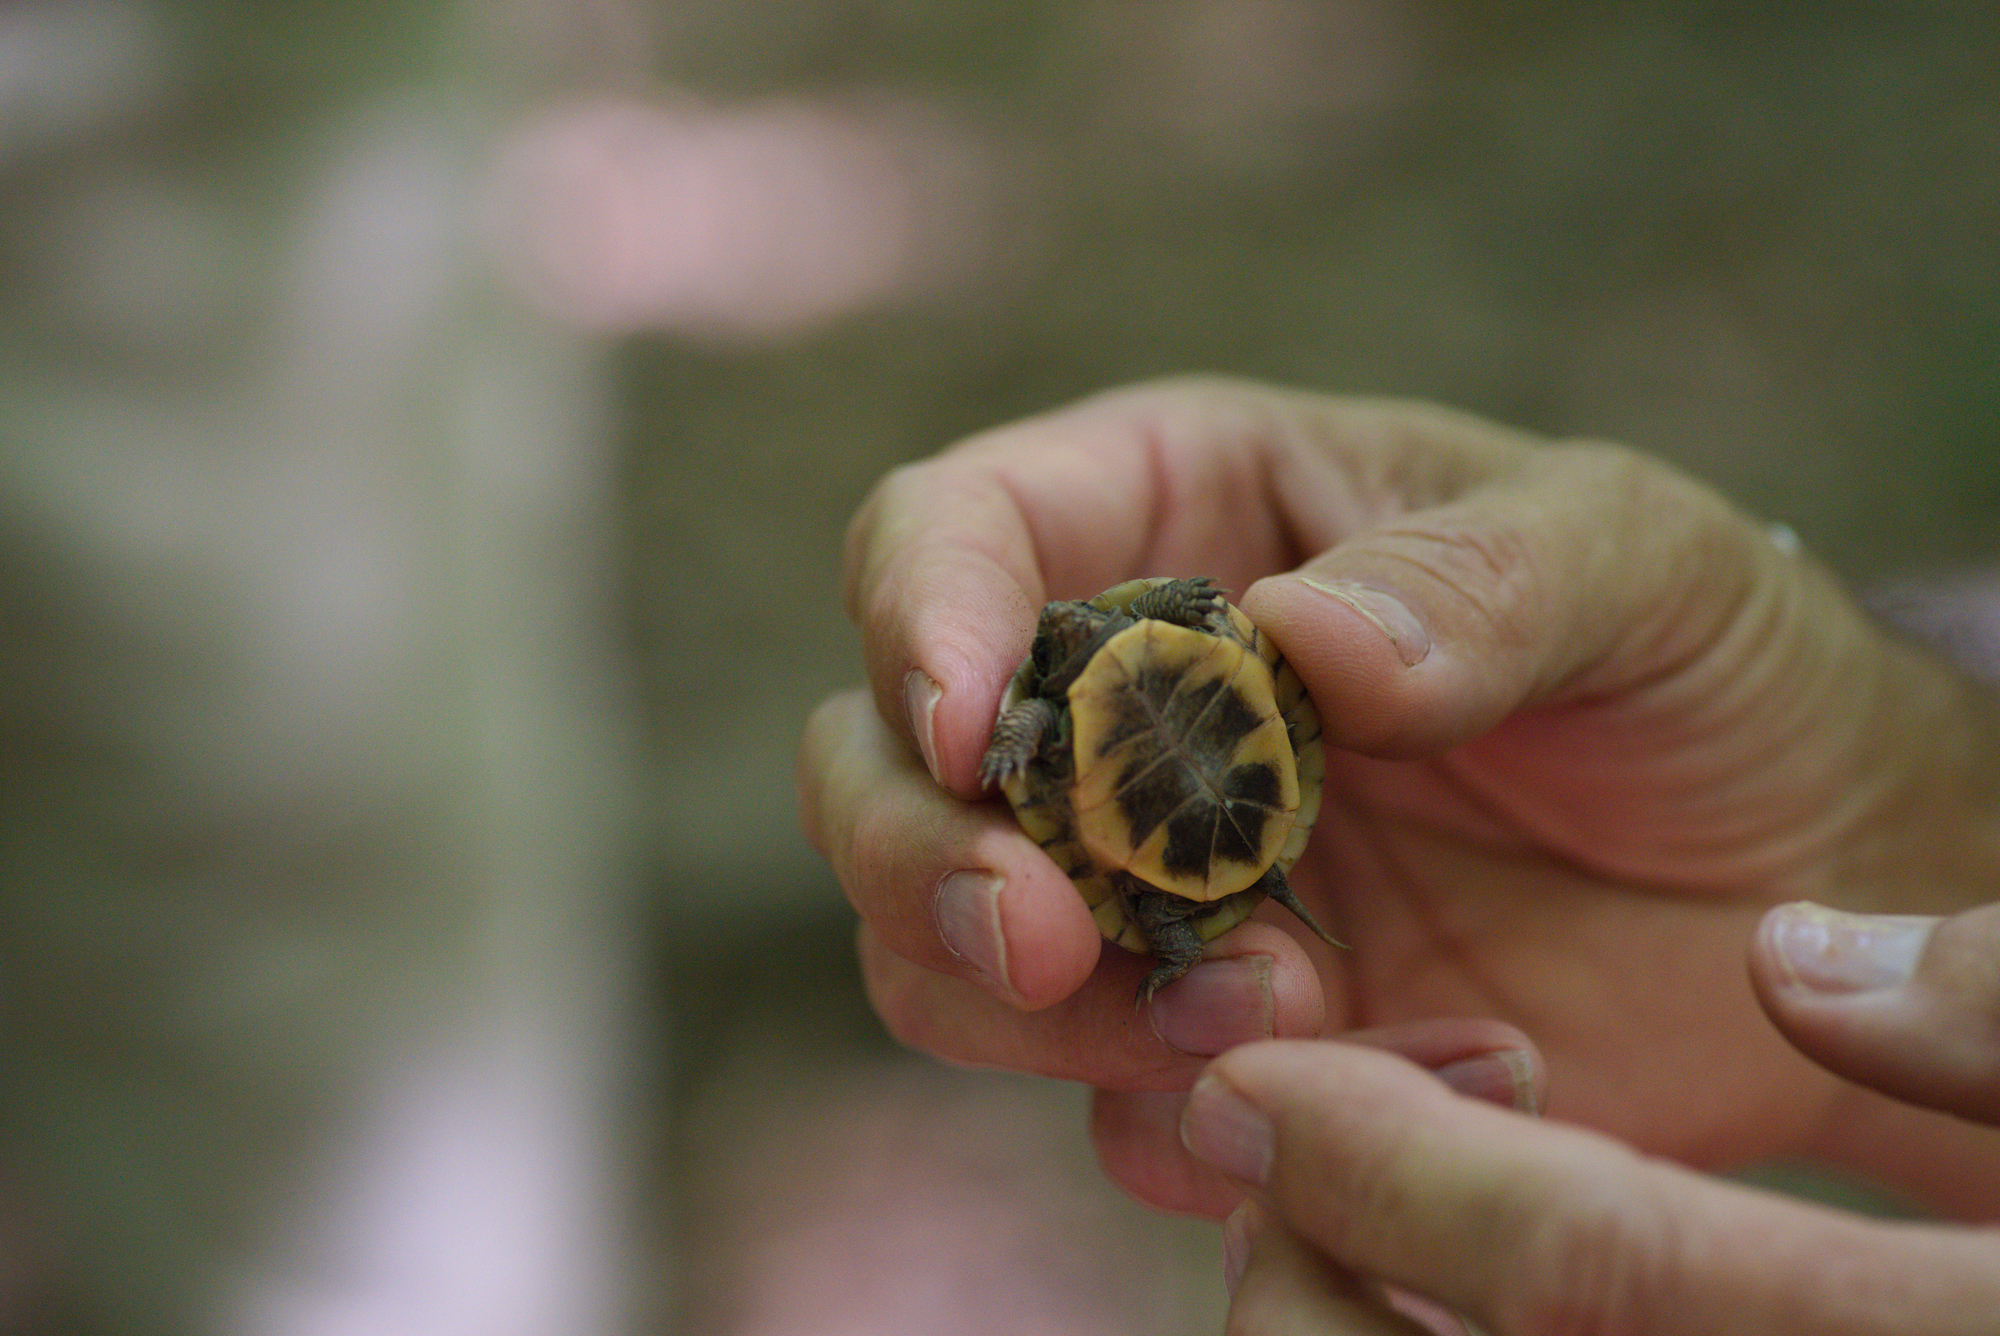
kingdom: Animalia
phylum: Chordata
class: Testudines
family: Emydidae
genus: Terrapene
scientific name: Terrapene carolina
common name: Common box turtle
